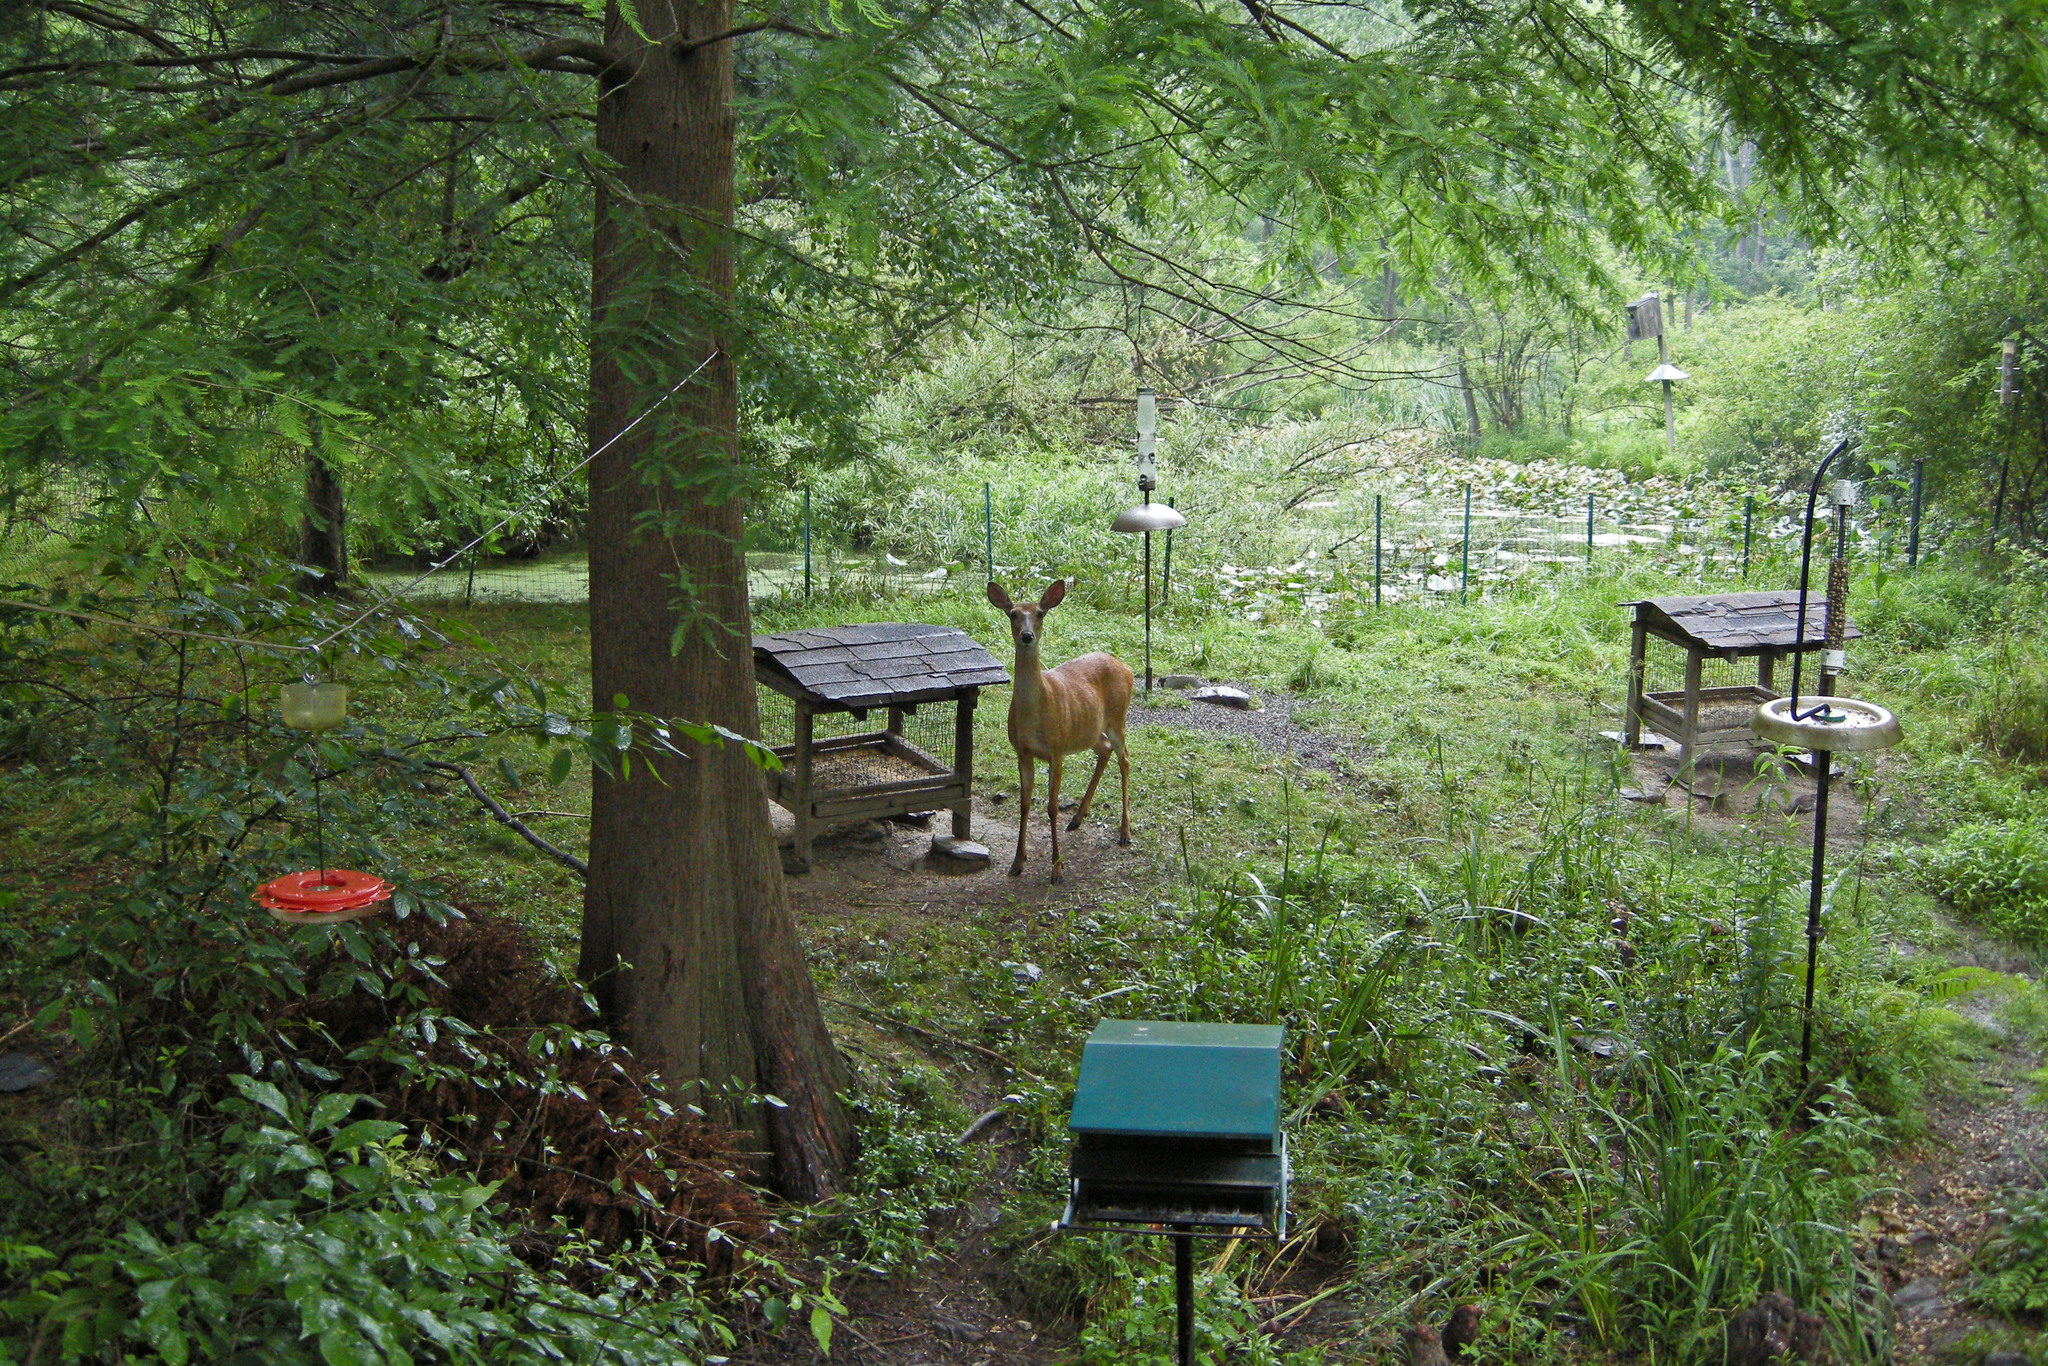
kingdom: Animalia
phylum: Chordata
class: Mammalia
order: Artiodactyla
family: Cervidae
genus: Odocoileus
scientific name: Odocoileus virginianus
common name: White-tailed deer
